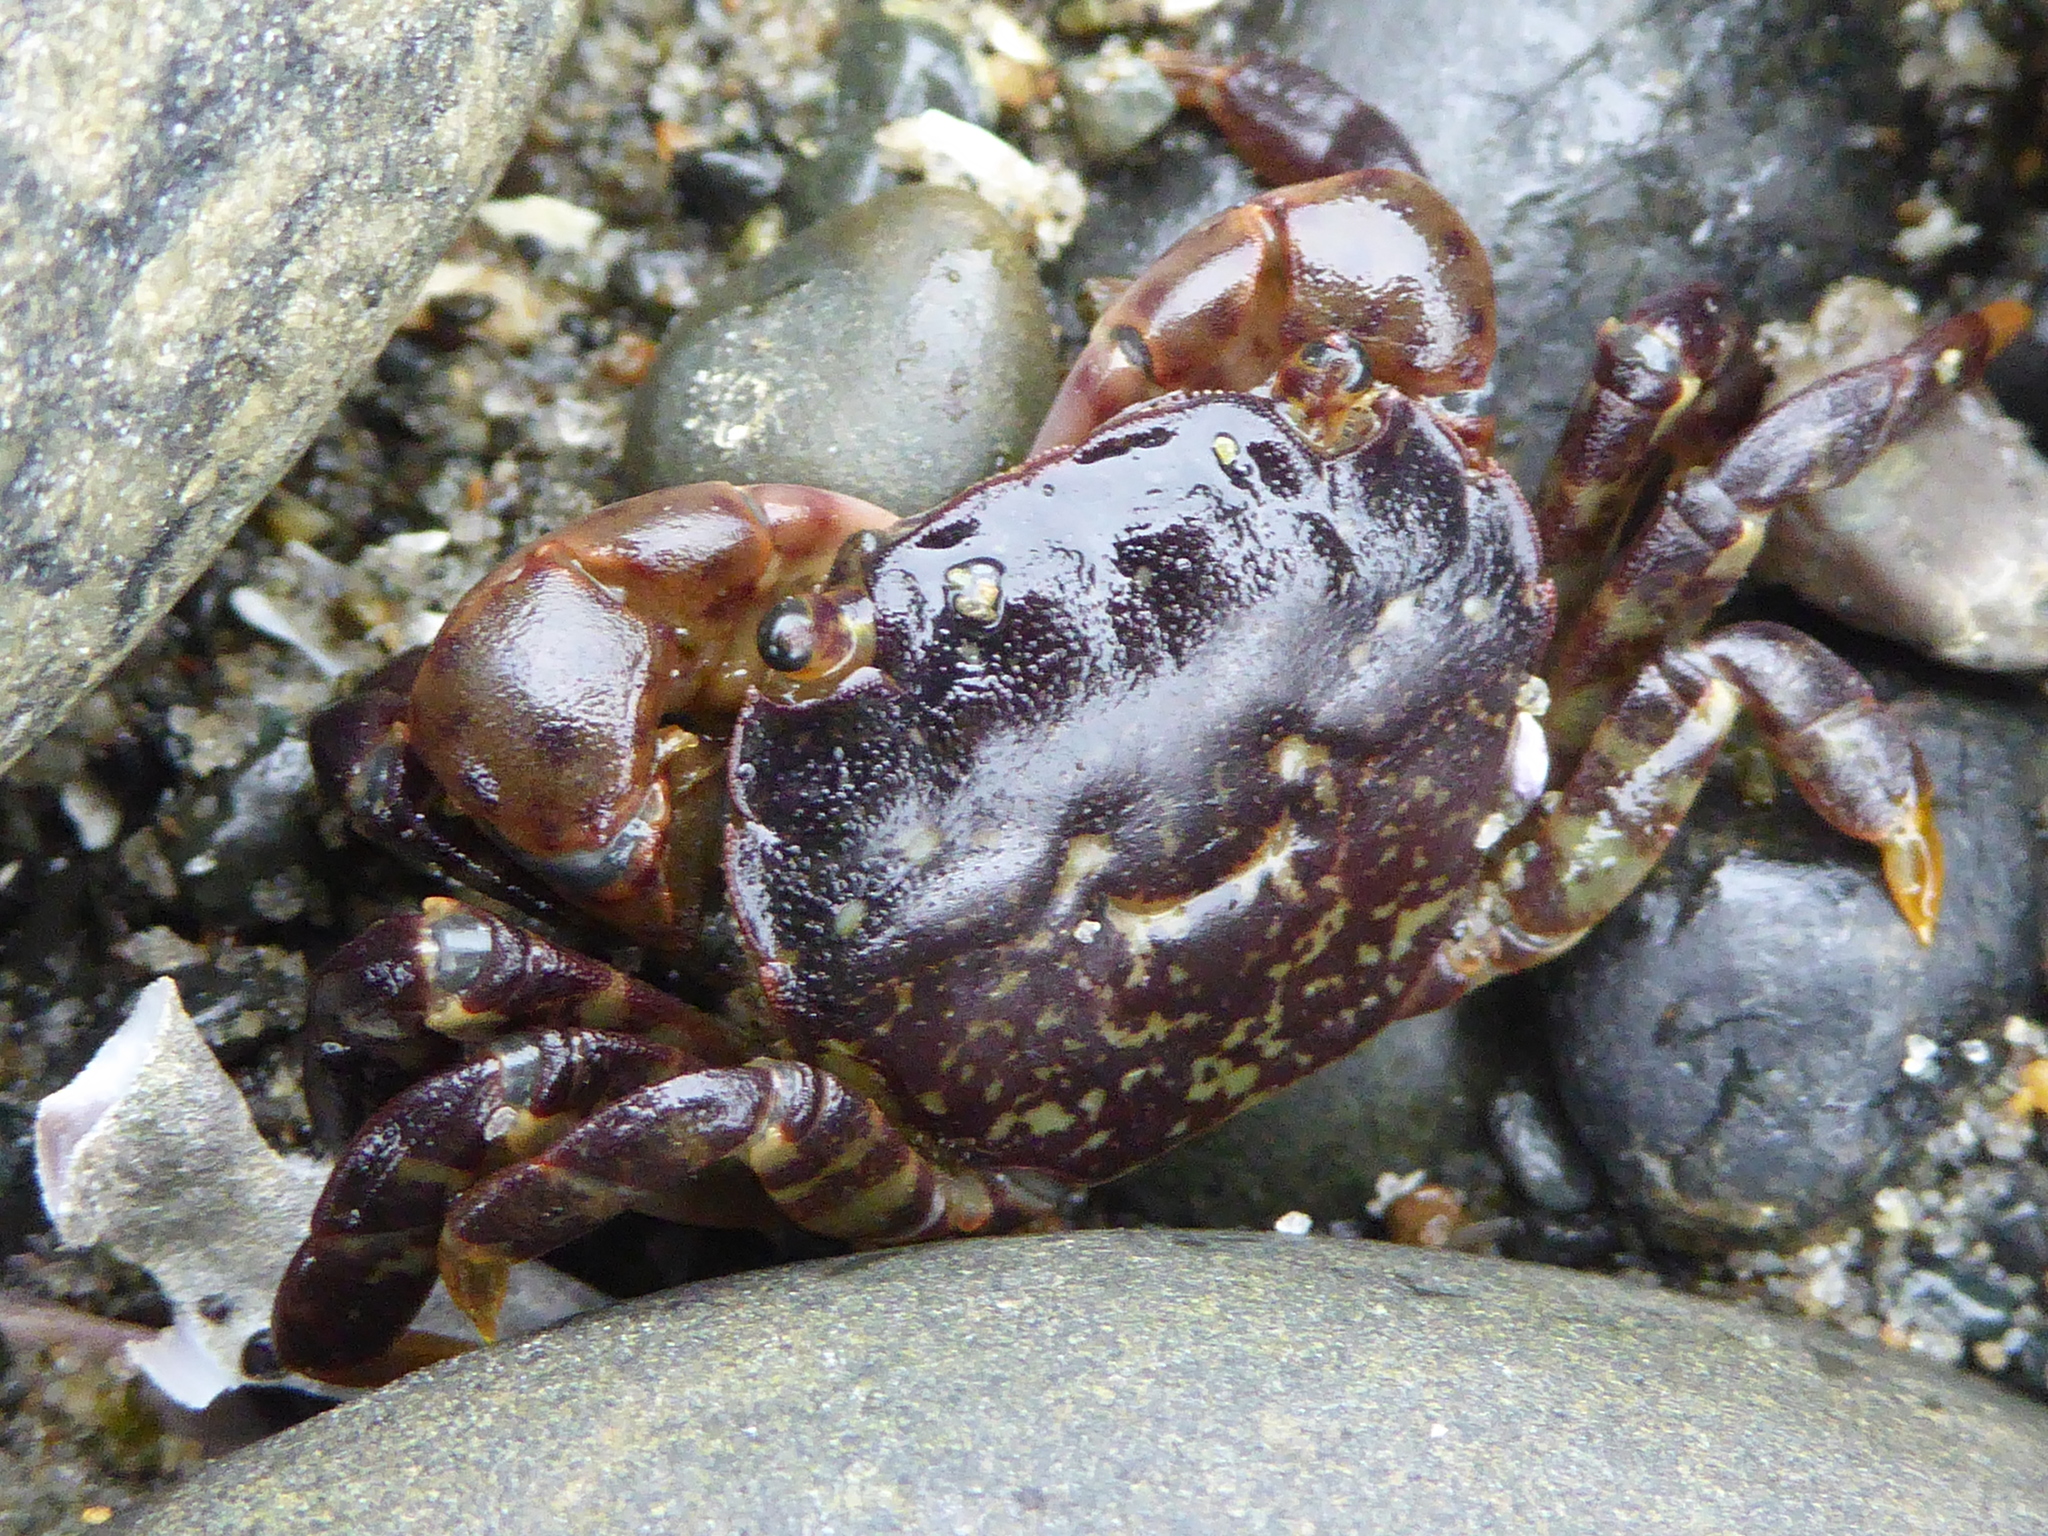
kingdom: Animalia
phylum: Arthropoda
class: Malacostraca
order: Decapoda
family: Varunidae
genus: Hemigrapsus
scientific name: Hemigrapsus nudus
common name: Purple shore crab
